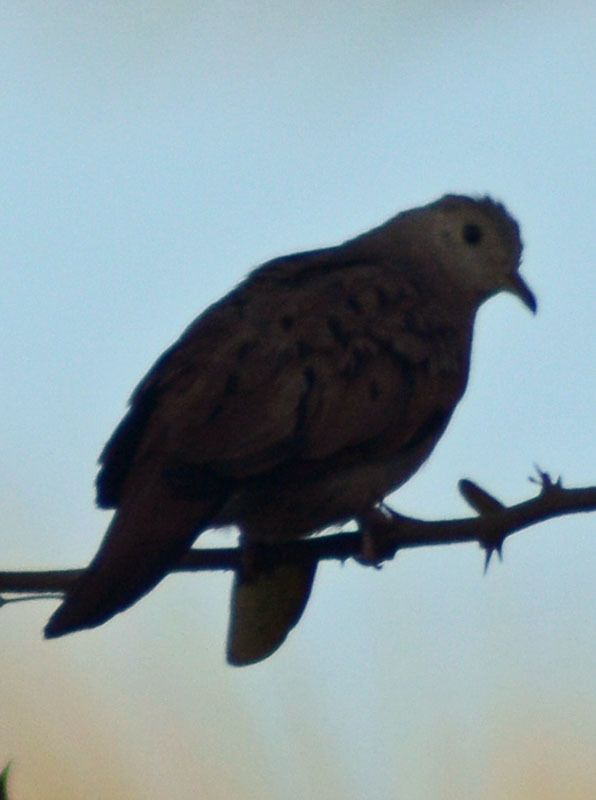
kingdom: Animalia
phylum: Chordata
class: Aves
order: Columbiformes
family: Columbidae
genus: Columbina
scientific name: Columbina talpacoti
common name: Ruddy ground dove
